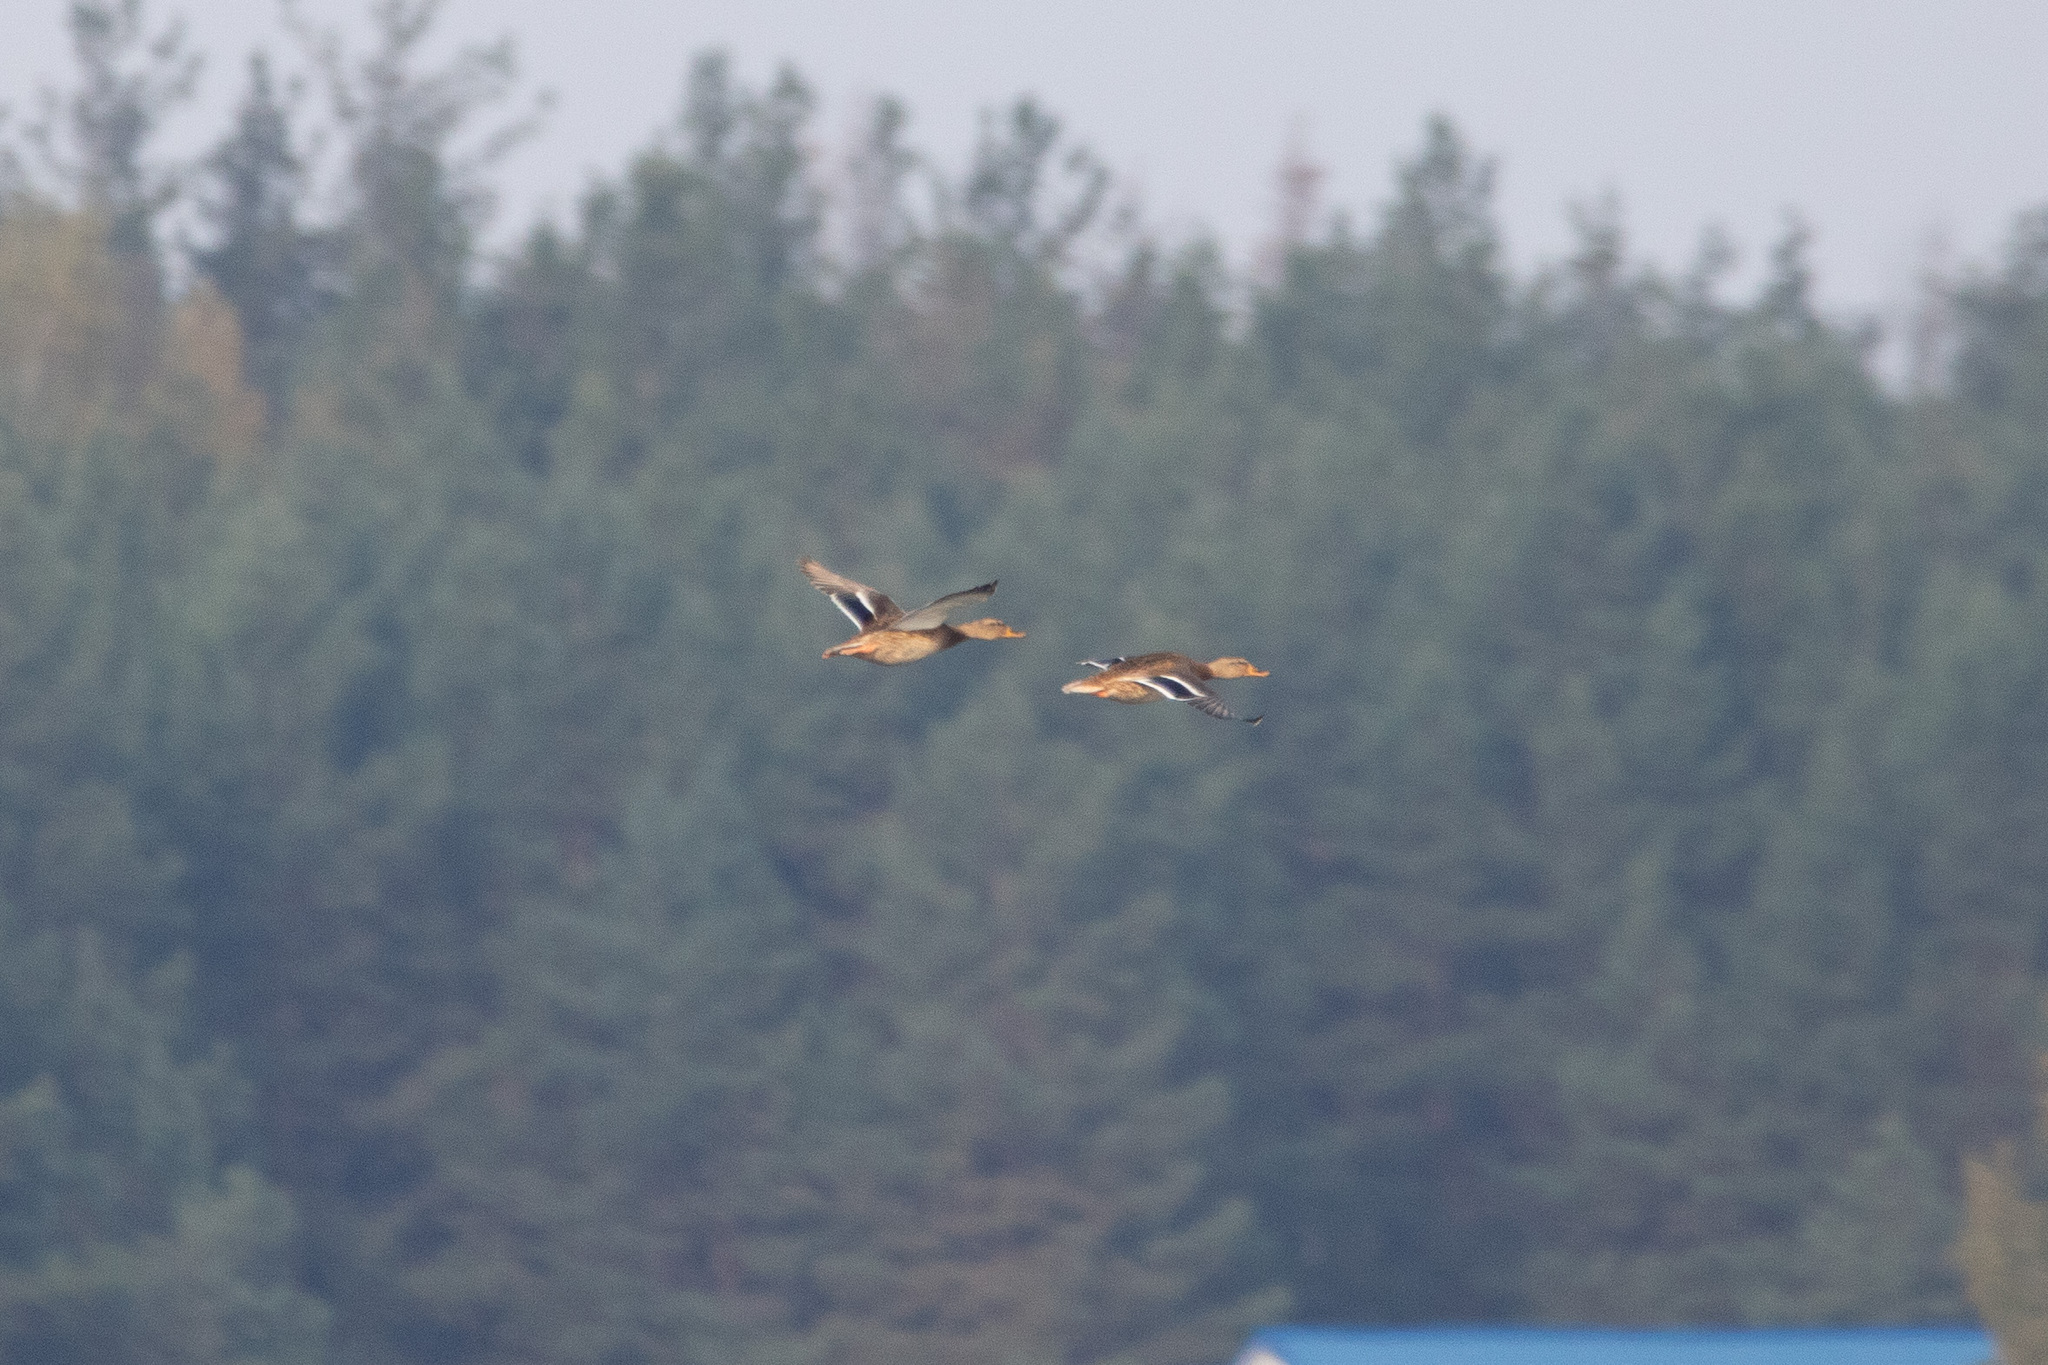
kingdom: Animalia
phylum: Chordata
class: Aves
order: Anseriformes
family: Anatidae
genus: Anas
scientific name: Anas platyrhynchos
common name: Mallard
